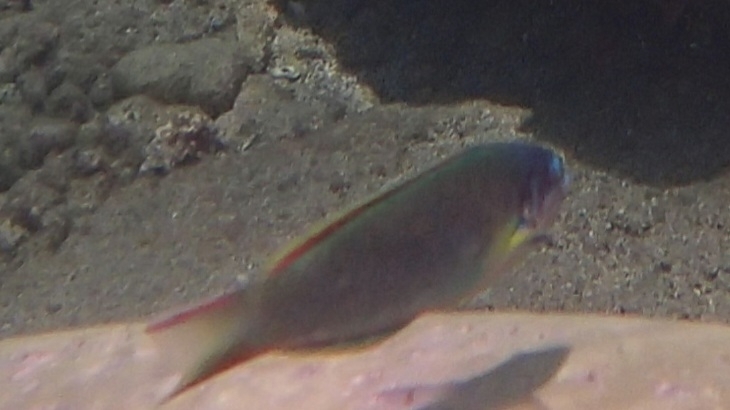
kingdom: Animalia
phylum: Chordata
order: Perciformes
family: Labridae
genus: Thalassoma
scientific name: Thalassoma genivittatum
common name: Red-cheek wrasse
